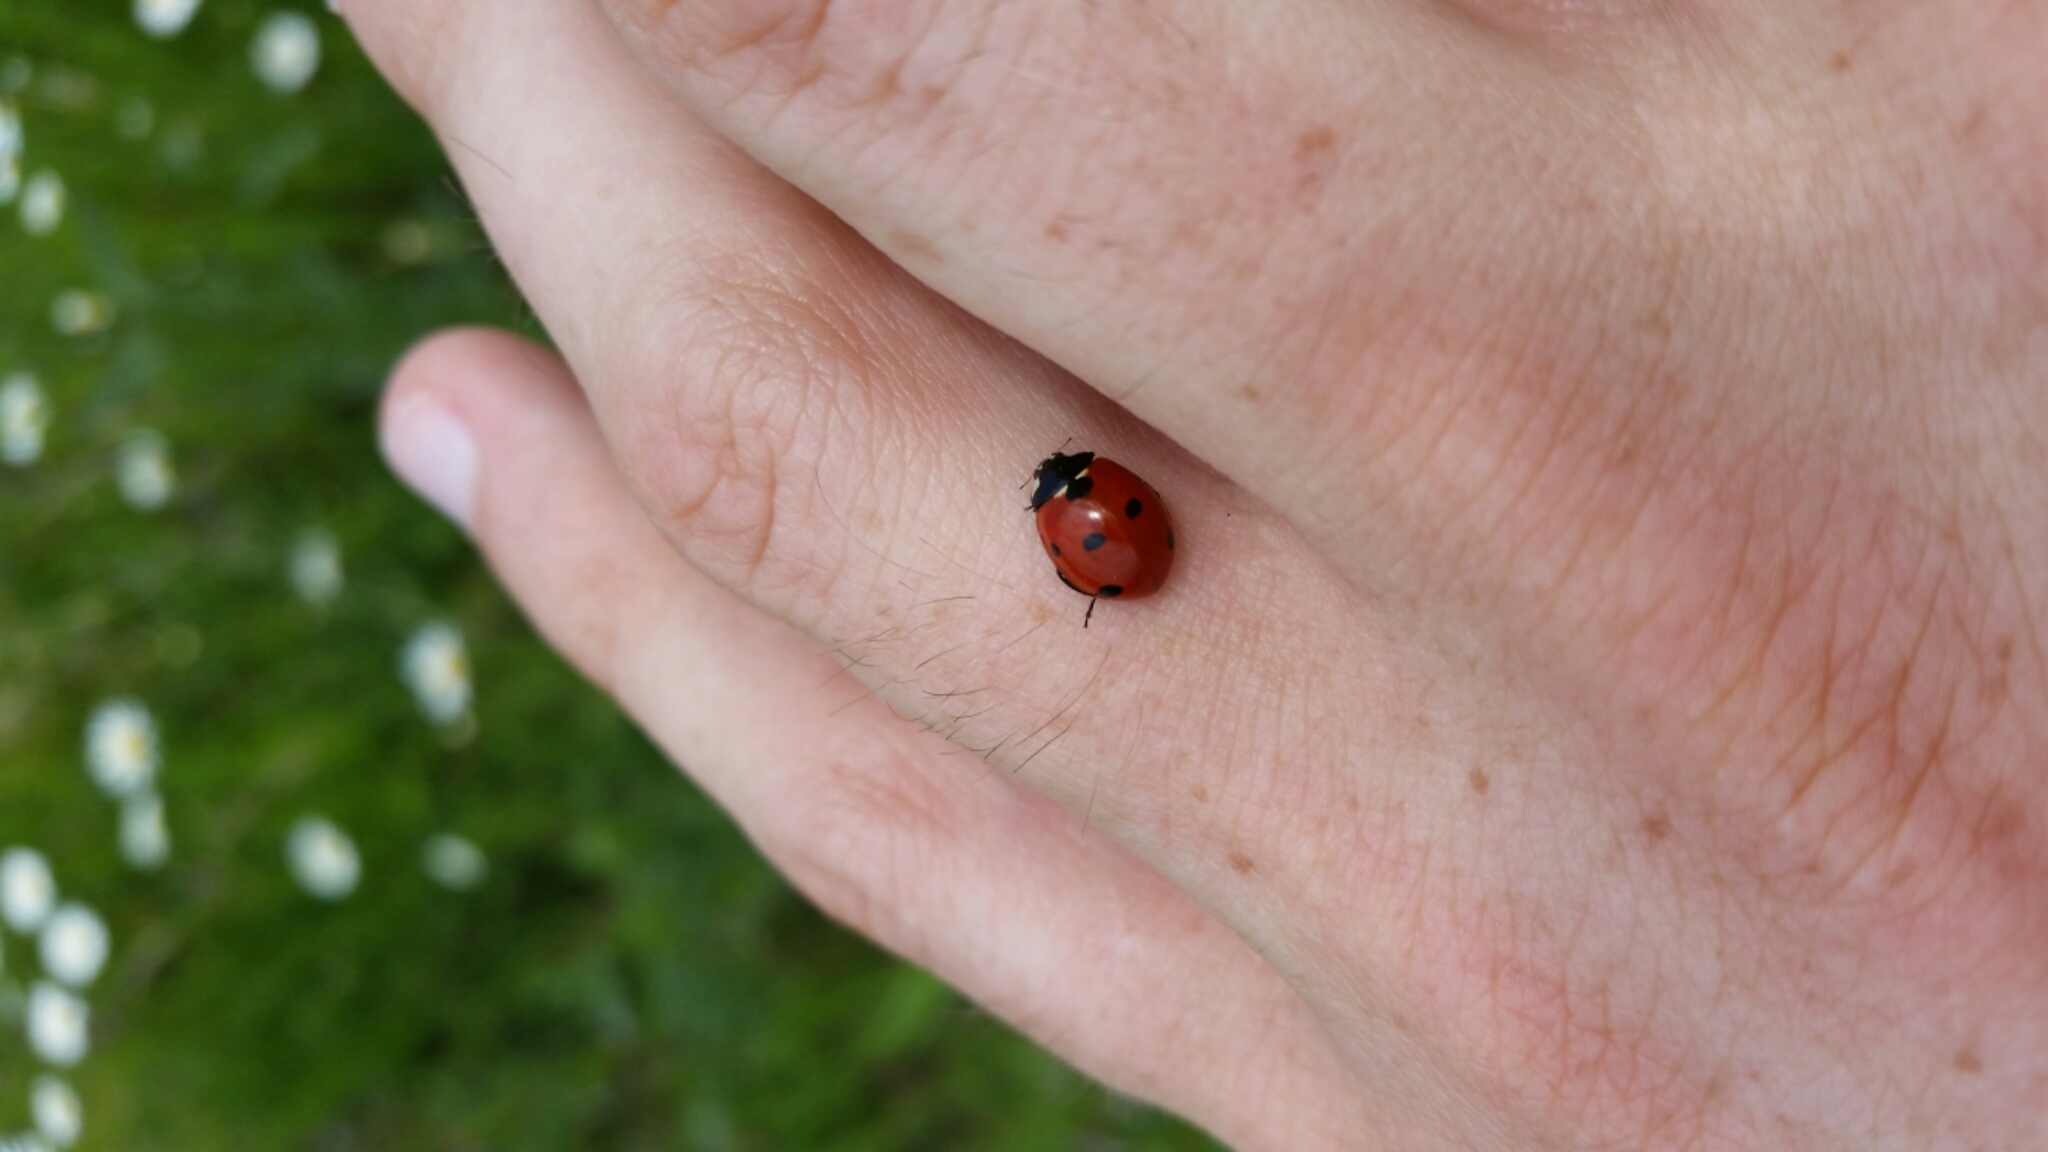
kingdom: Animalia
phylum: Arthropoda
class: Insecta
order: Coleoptera
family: Coccinellidae
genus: Coccinella
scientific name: Coccinella septempunctata
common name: Sevenspotted lady beetle
